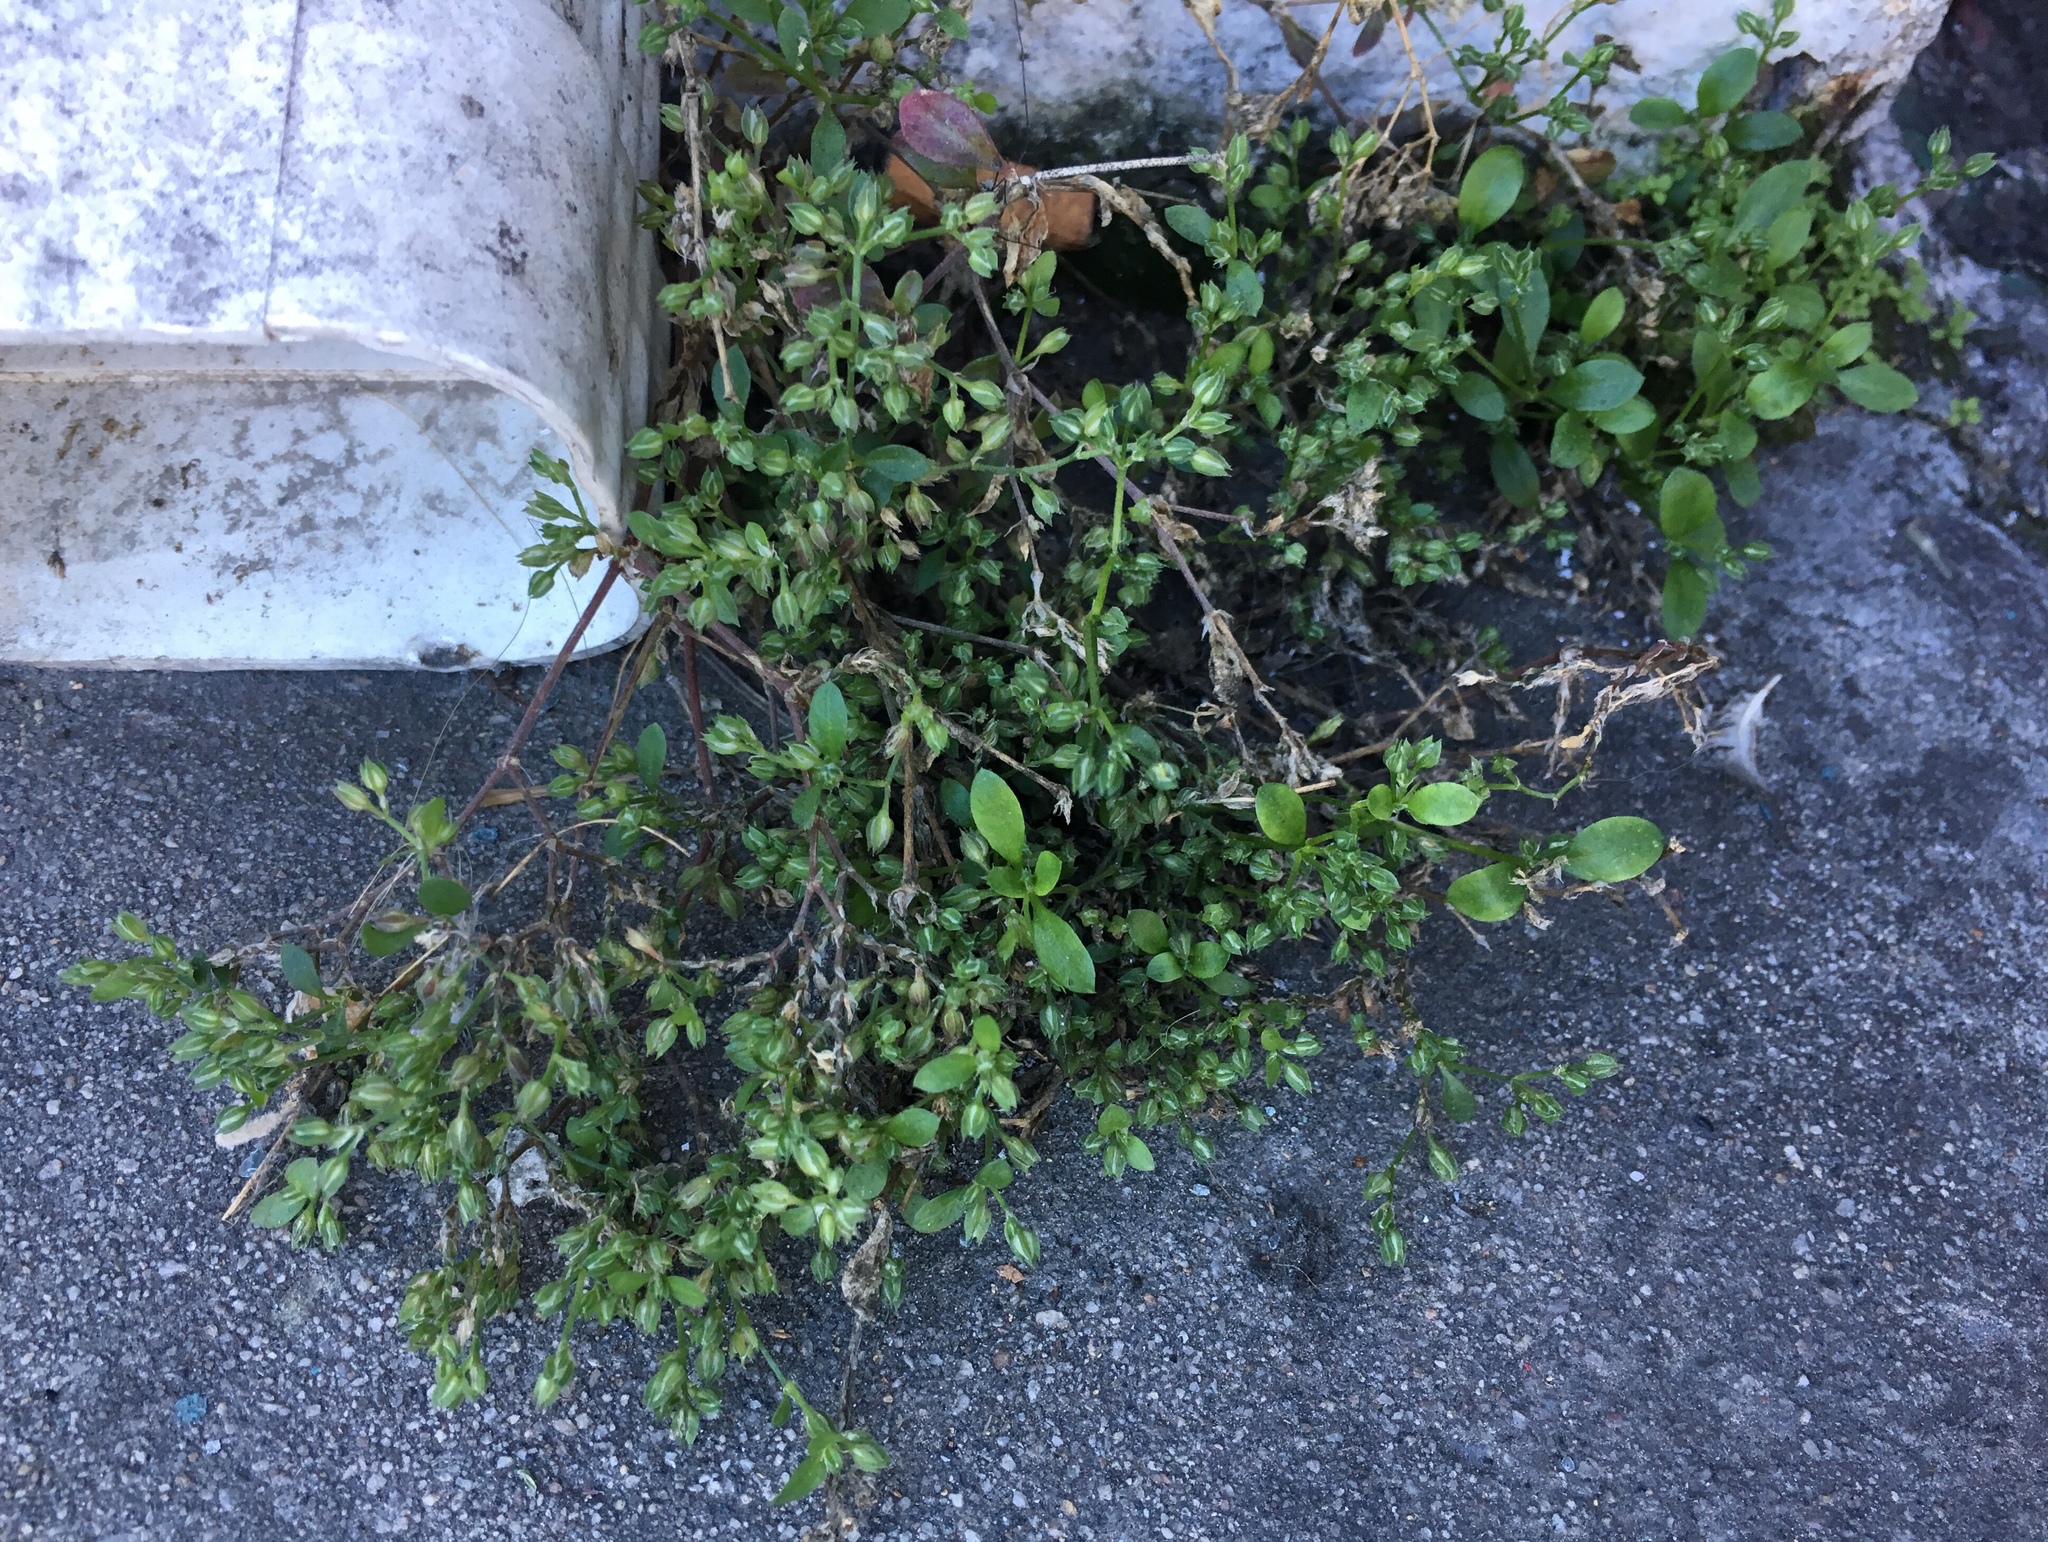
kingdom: Plantae
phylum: Tracheophyta
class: Magnoliopsida
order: Caryophyllales
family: Caryophyllaceae
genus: Polycarpon
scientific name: Polycarpon tetraphyllum
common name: Four-leaved all-seed
